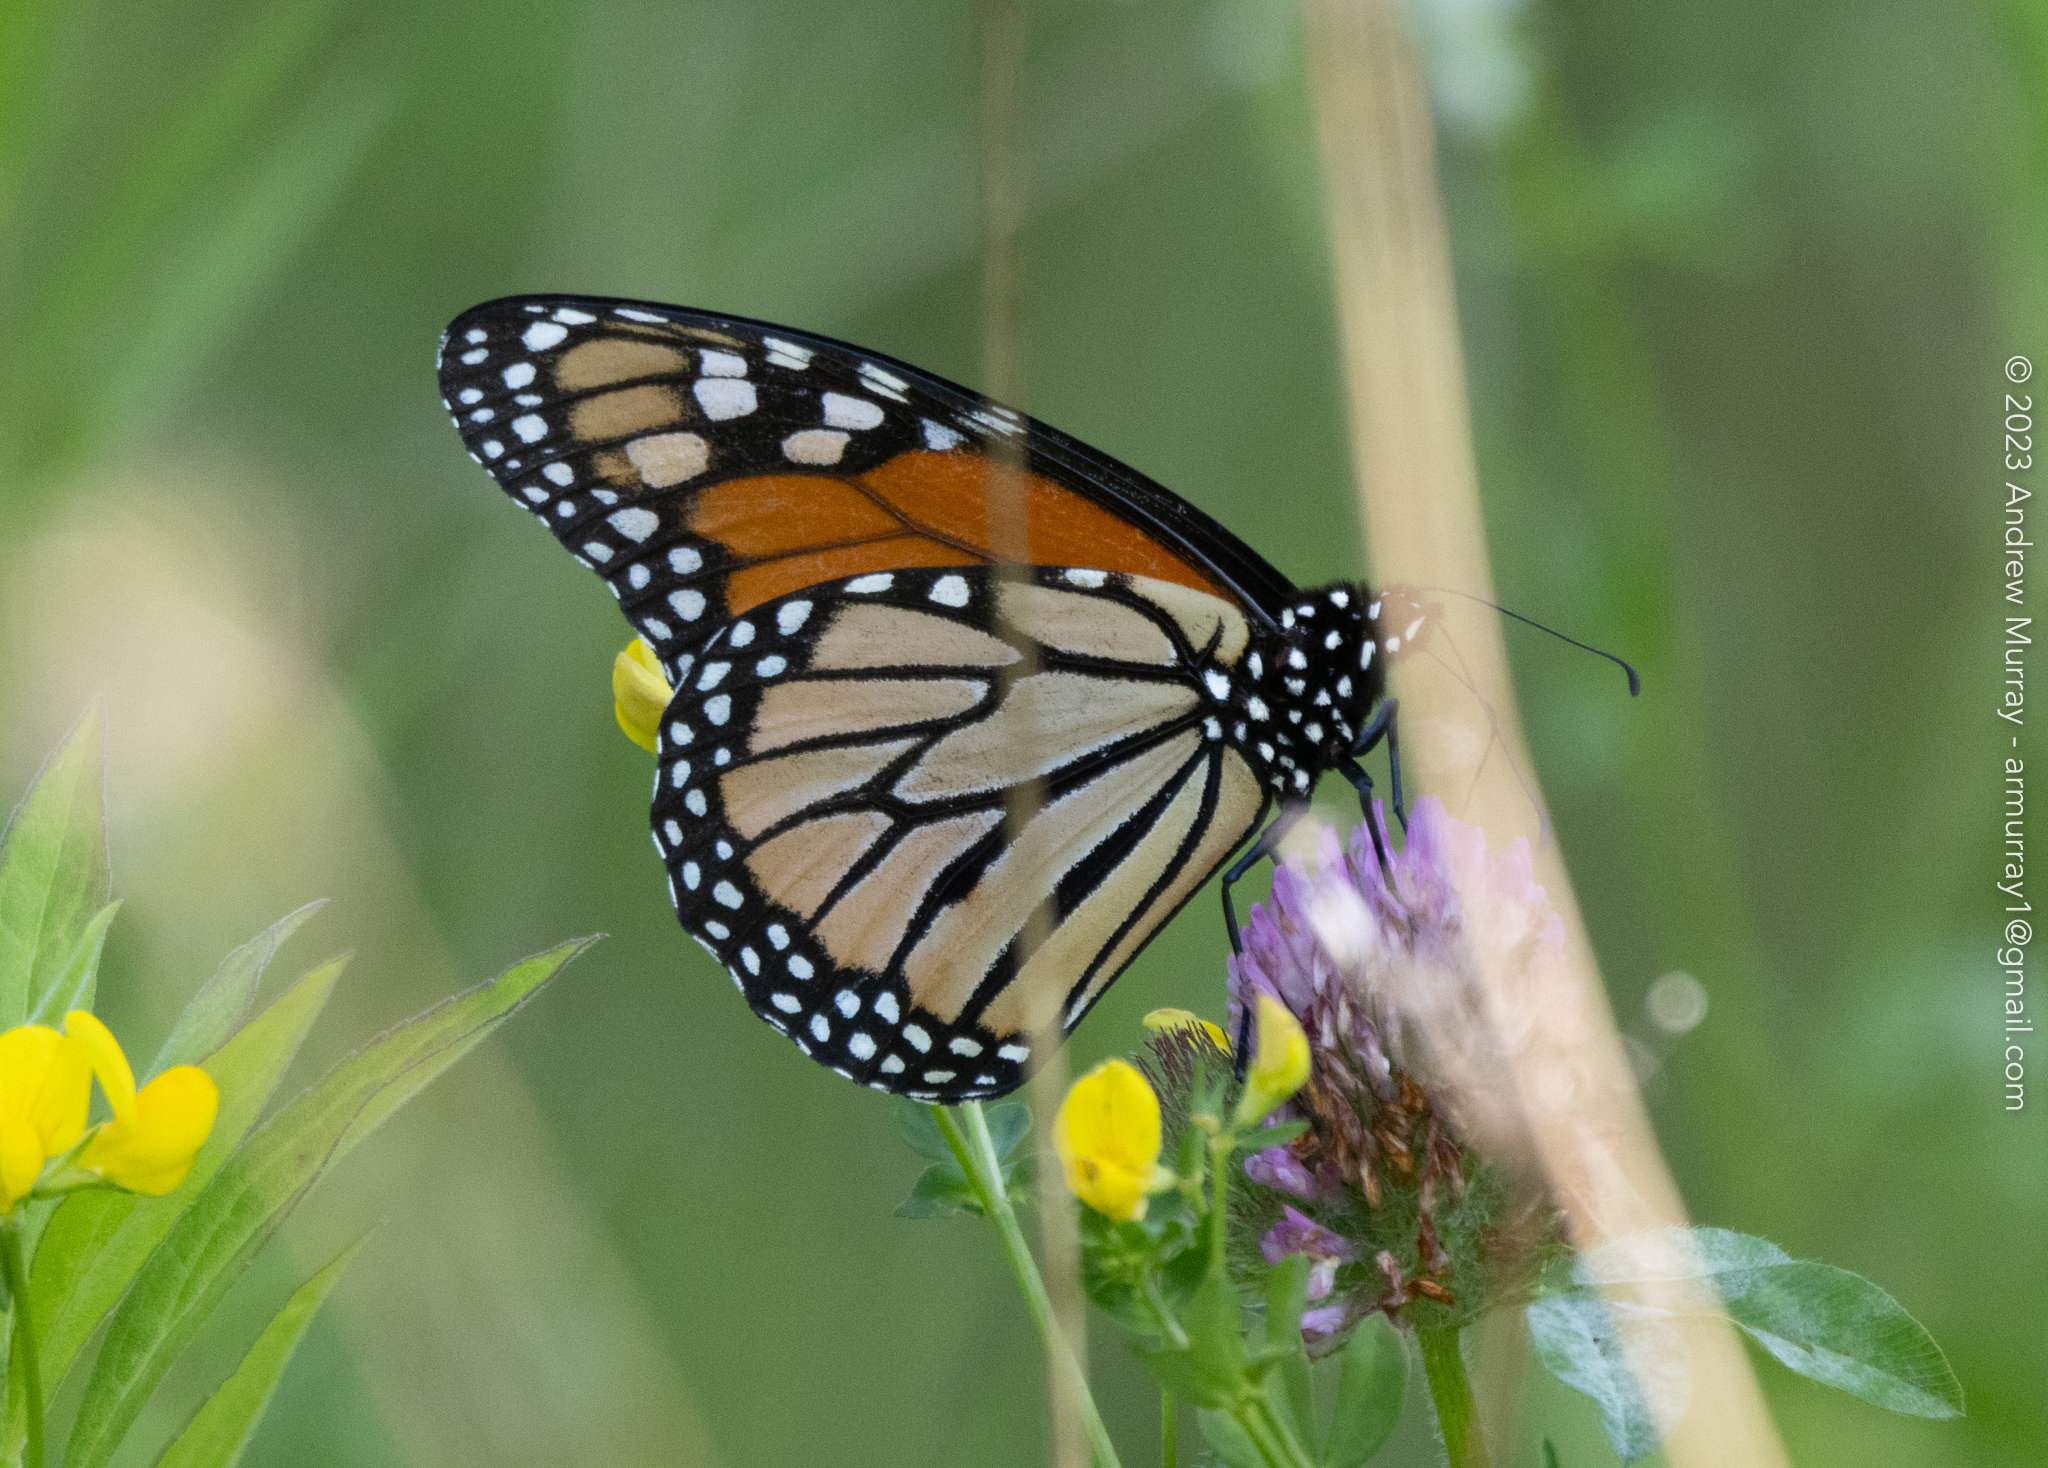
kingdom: Animalia
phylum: Arthropoda
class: Insecta
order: Lepidoptera
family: Nymphalidae
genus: Danaus
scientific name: Danaus plexippus
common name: Monarch
